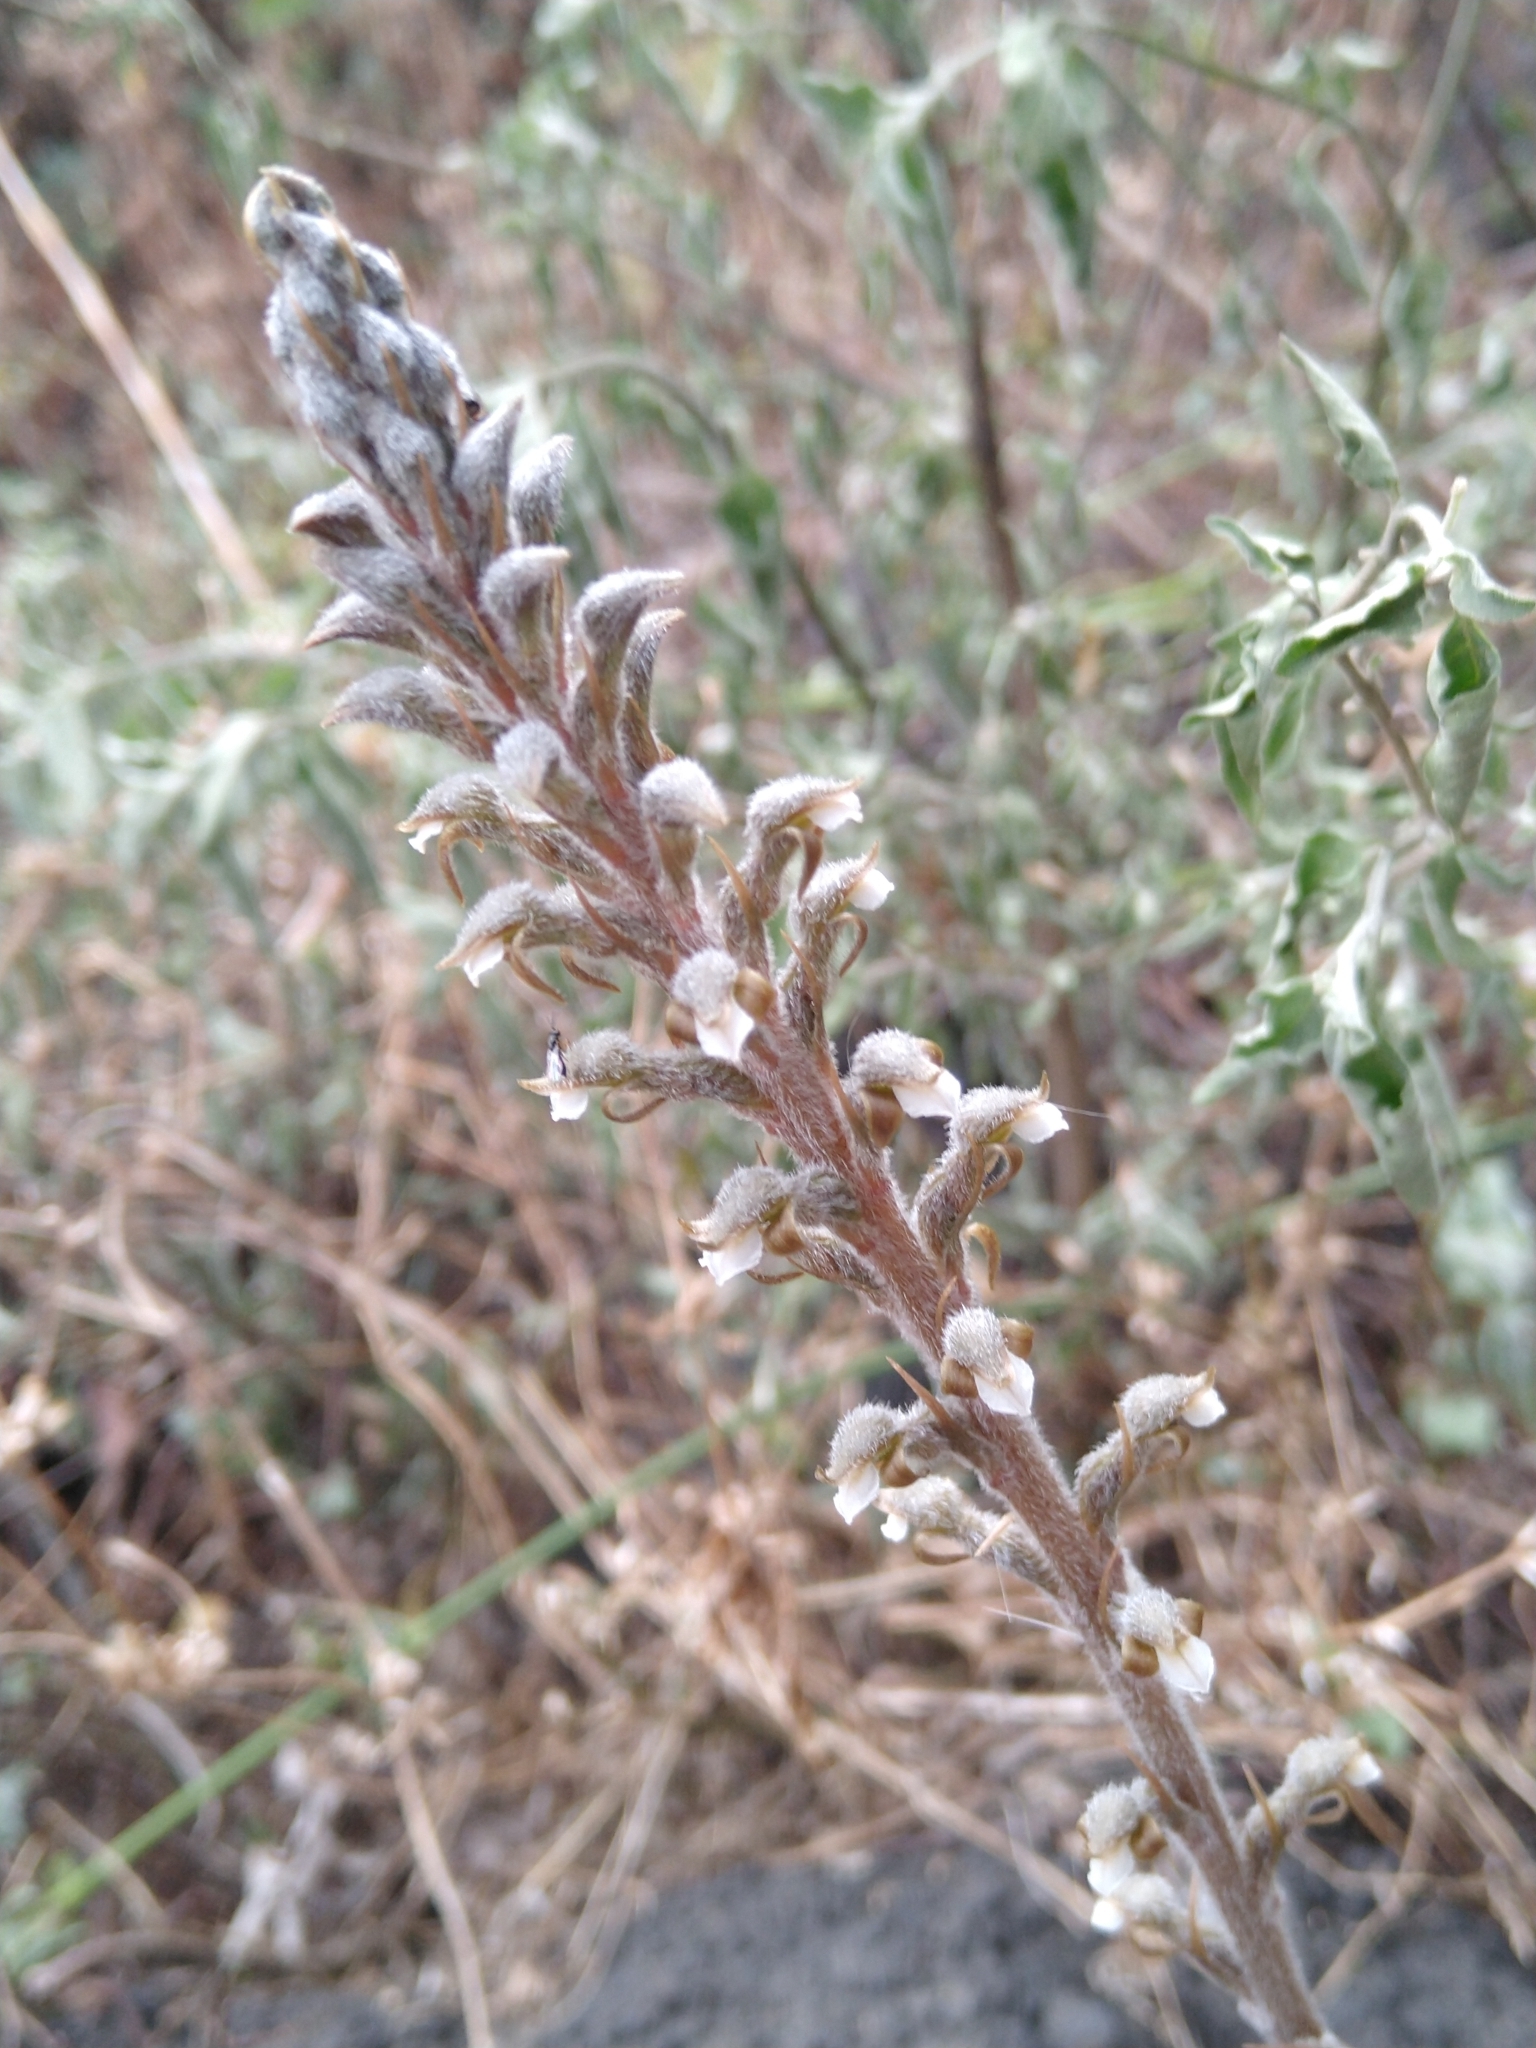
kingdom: Plantae
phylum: Tracheophyta
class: Liliopsida
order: Asparagales
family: Orchidaceae
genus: Sarcoglottis
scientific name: Sarcoglottis schaffneri
